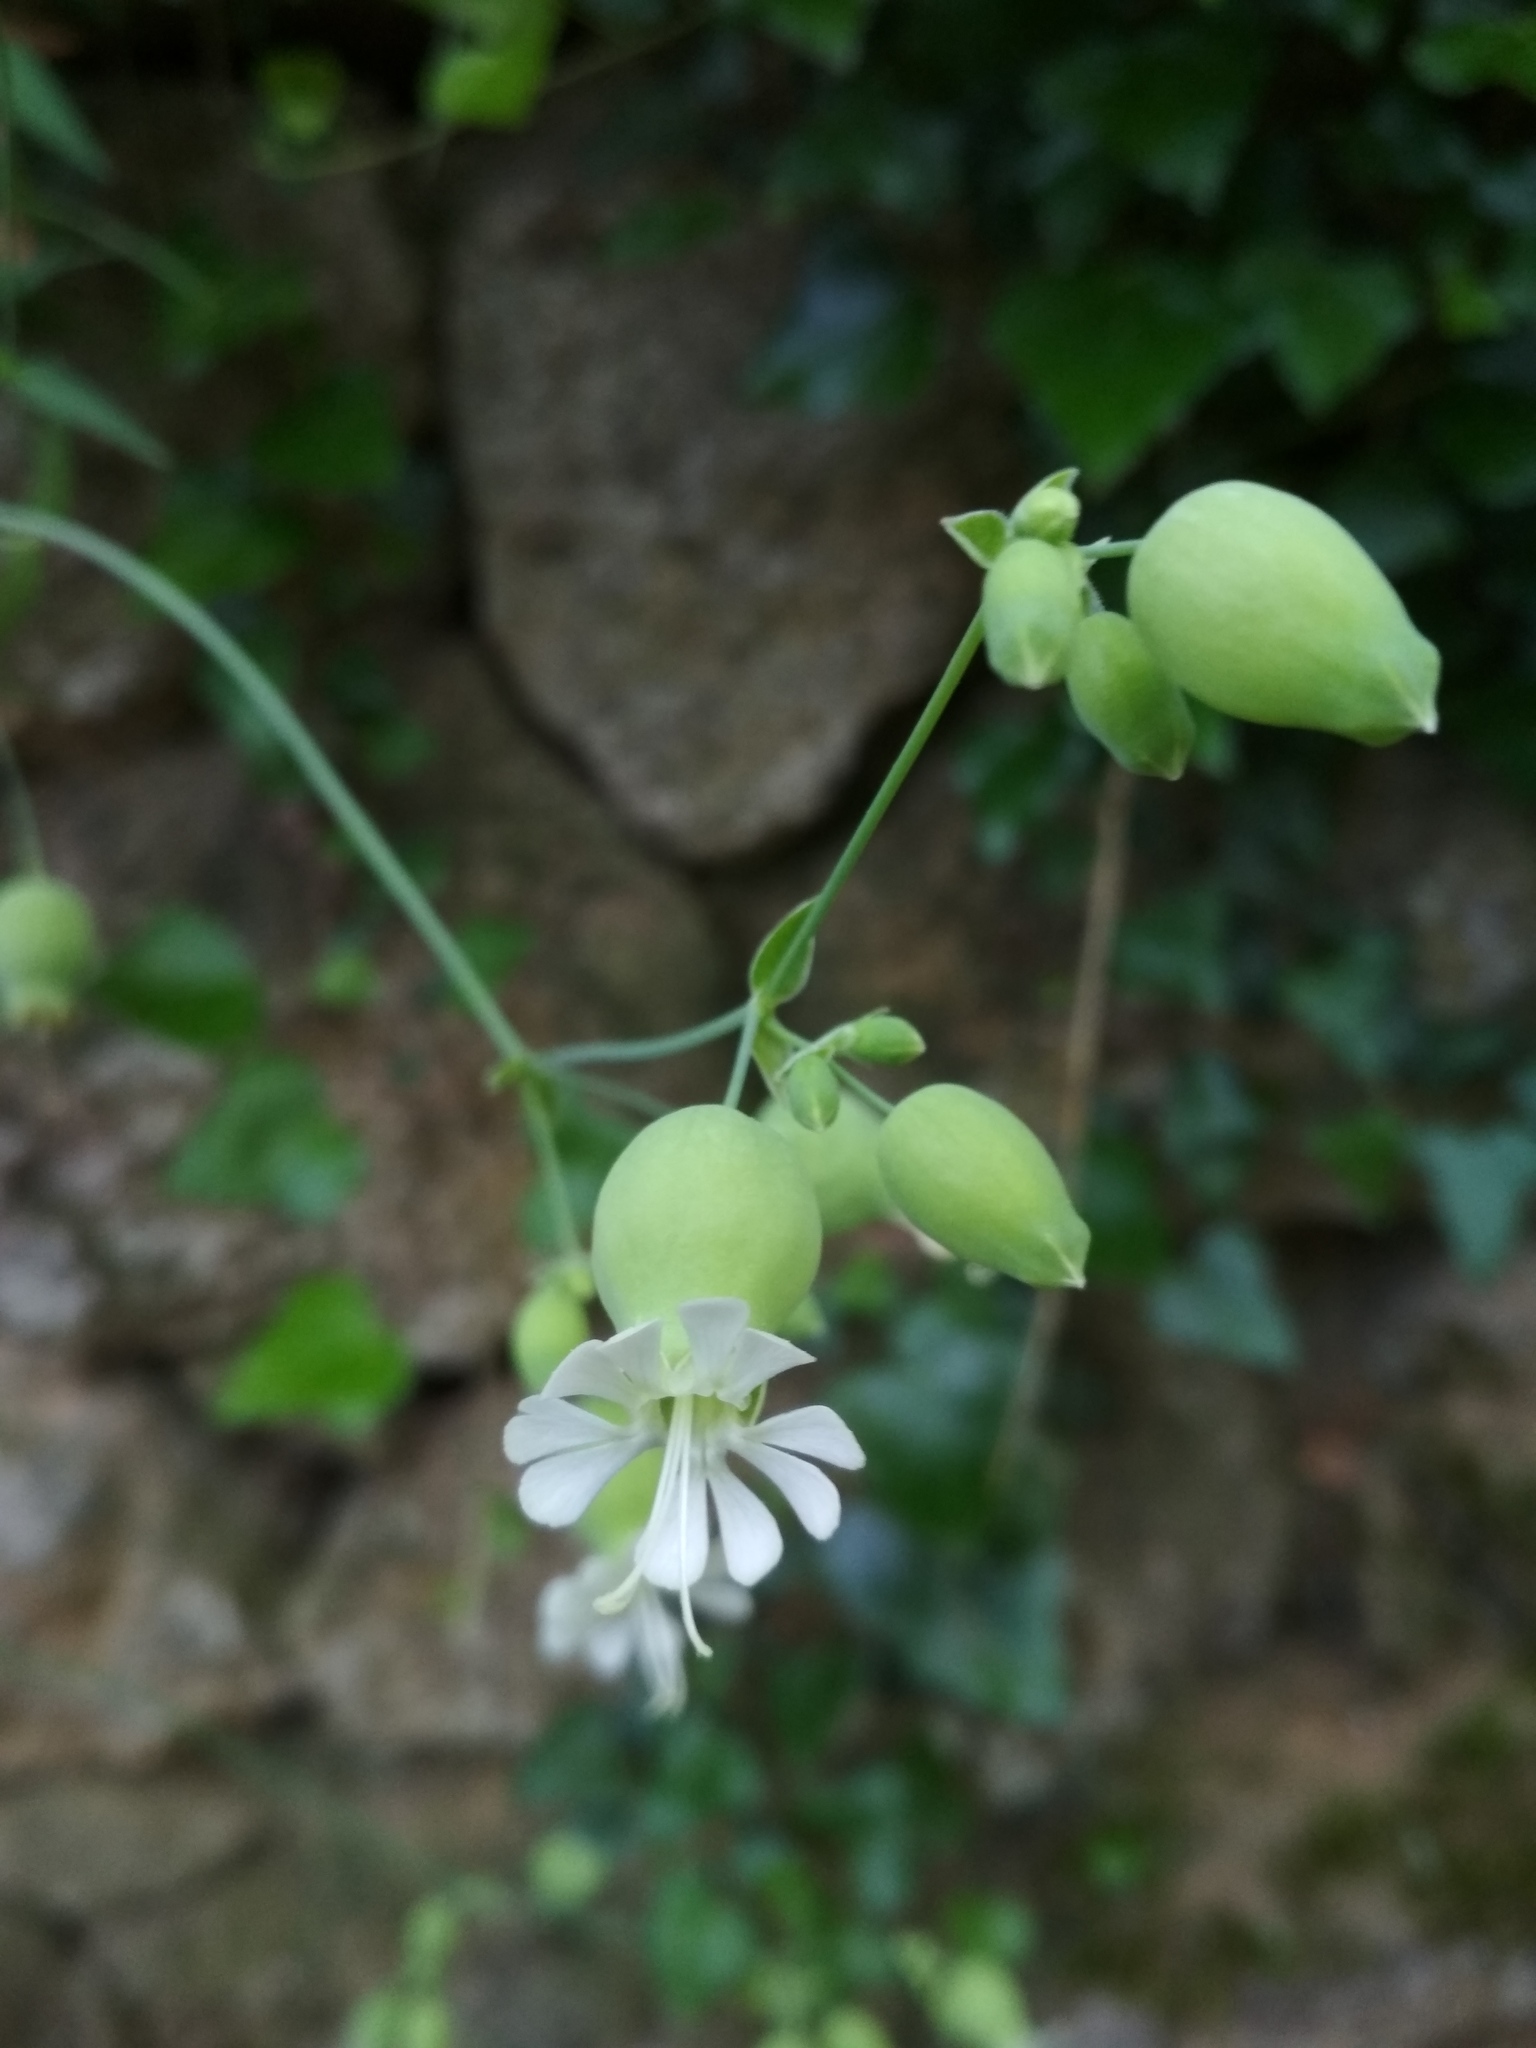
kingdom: Plantae
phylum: Tracheophyta
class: Magnoliopsida
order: Caryophyllales
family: Caryophyllaceae
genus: Silene
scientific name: Silene vulgaris
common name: Bladder campion
